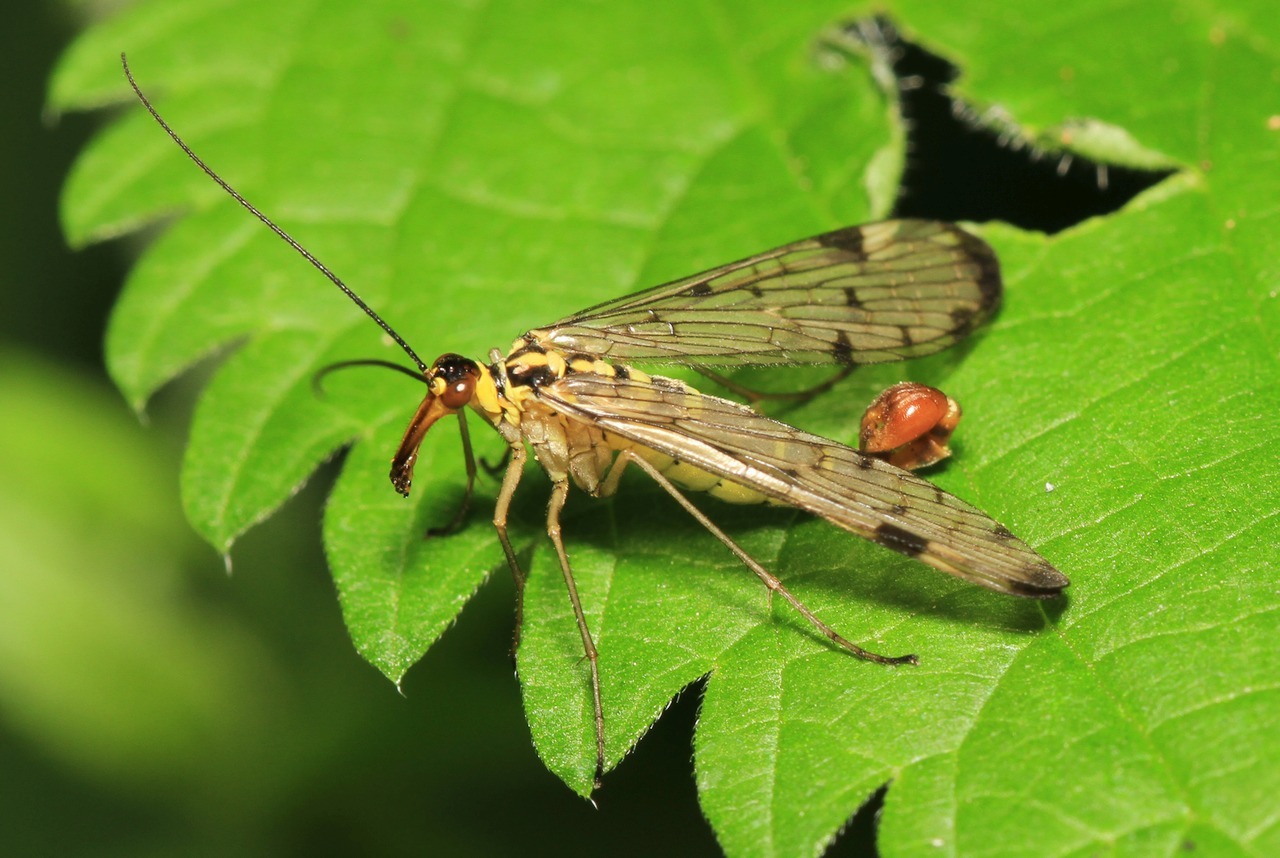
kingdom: Animalia
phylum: Arthropoda
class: Insecta
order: Mecoptera
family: Panorpidae
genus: Panorpa
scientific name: Panorpa germanica
